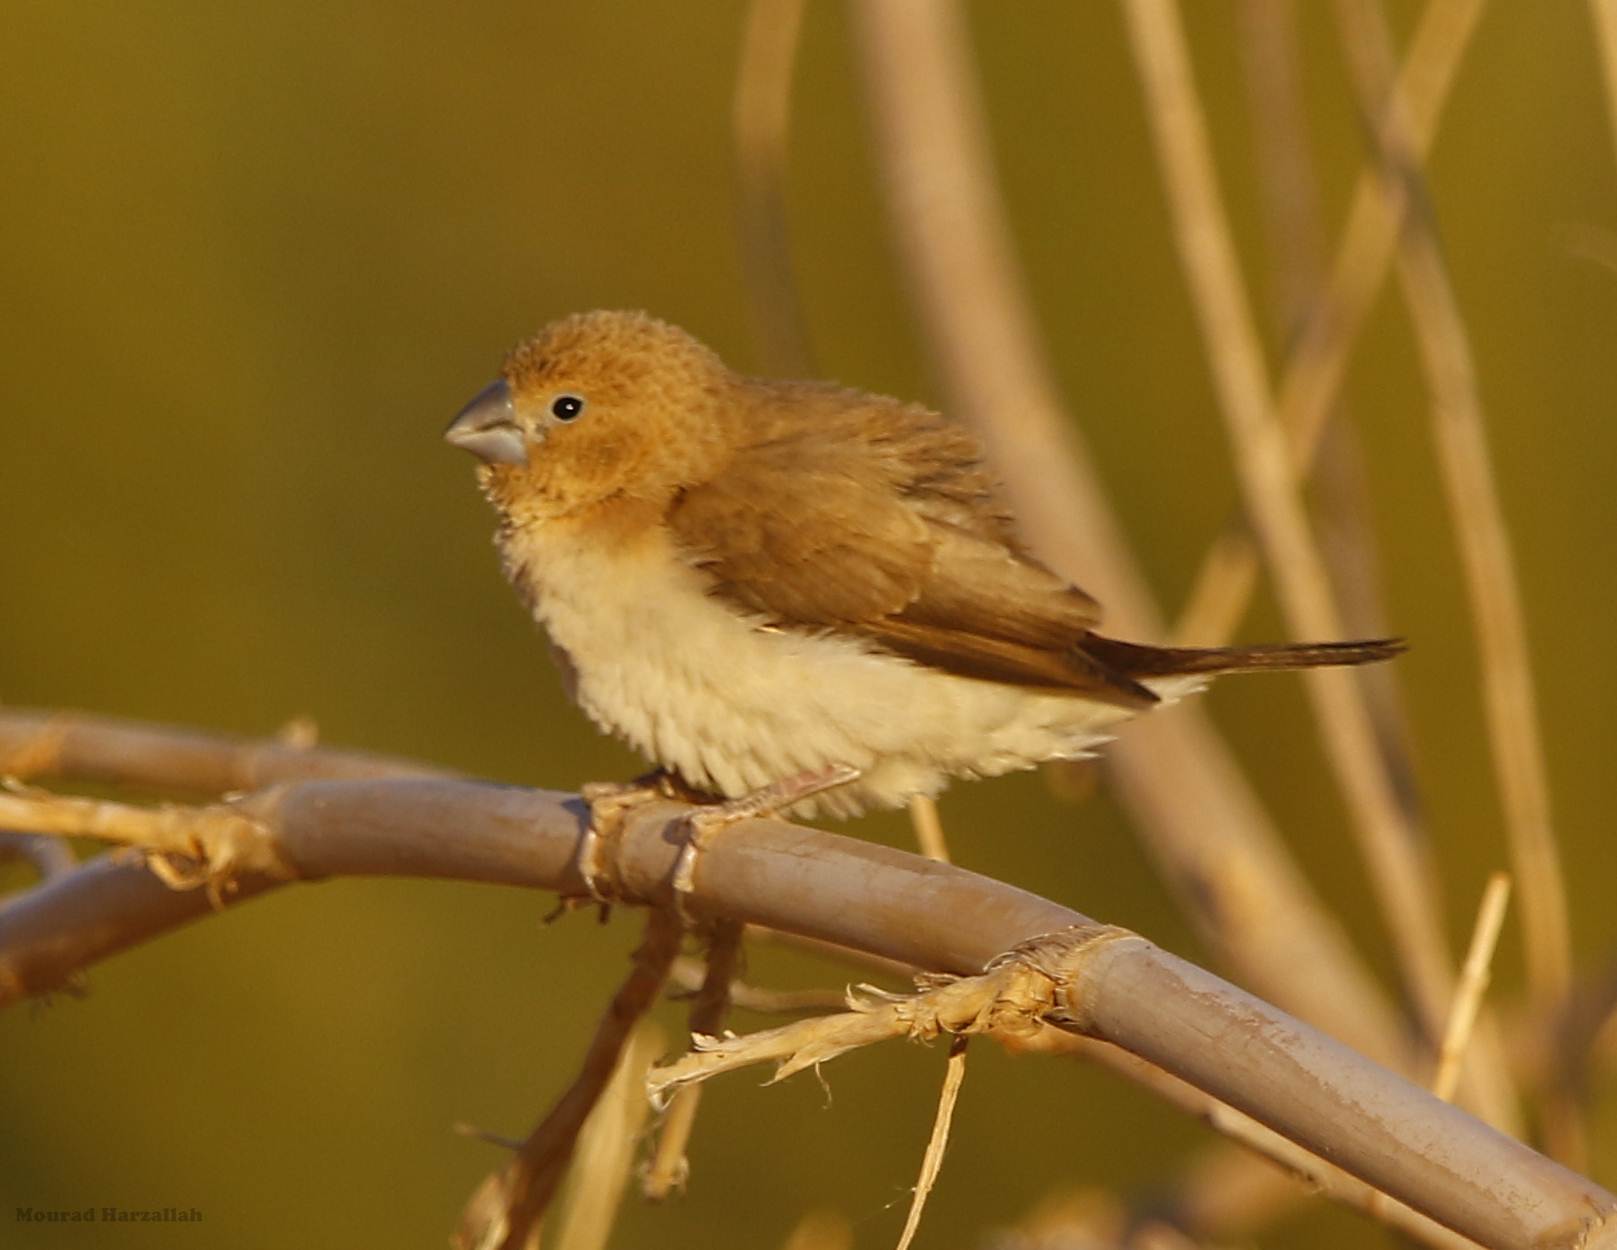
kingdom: Animalia
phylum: Chordata
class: Aves
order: Passeriformes
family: Estrildidae
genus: Euodice
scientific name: Euodice cantans
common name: African silverbill
